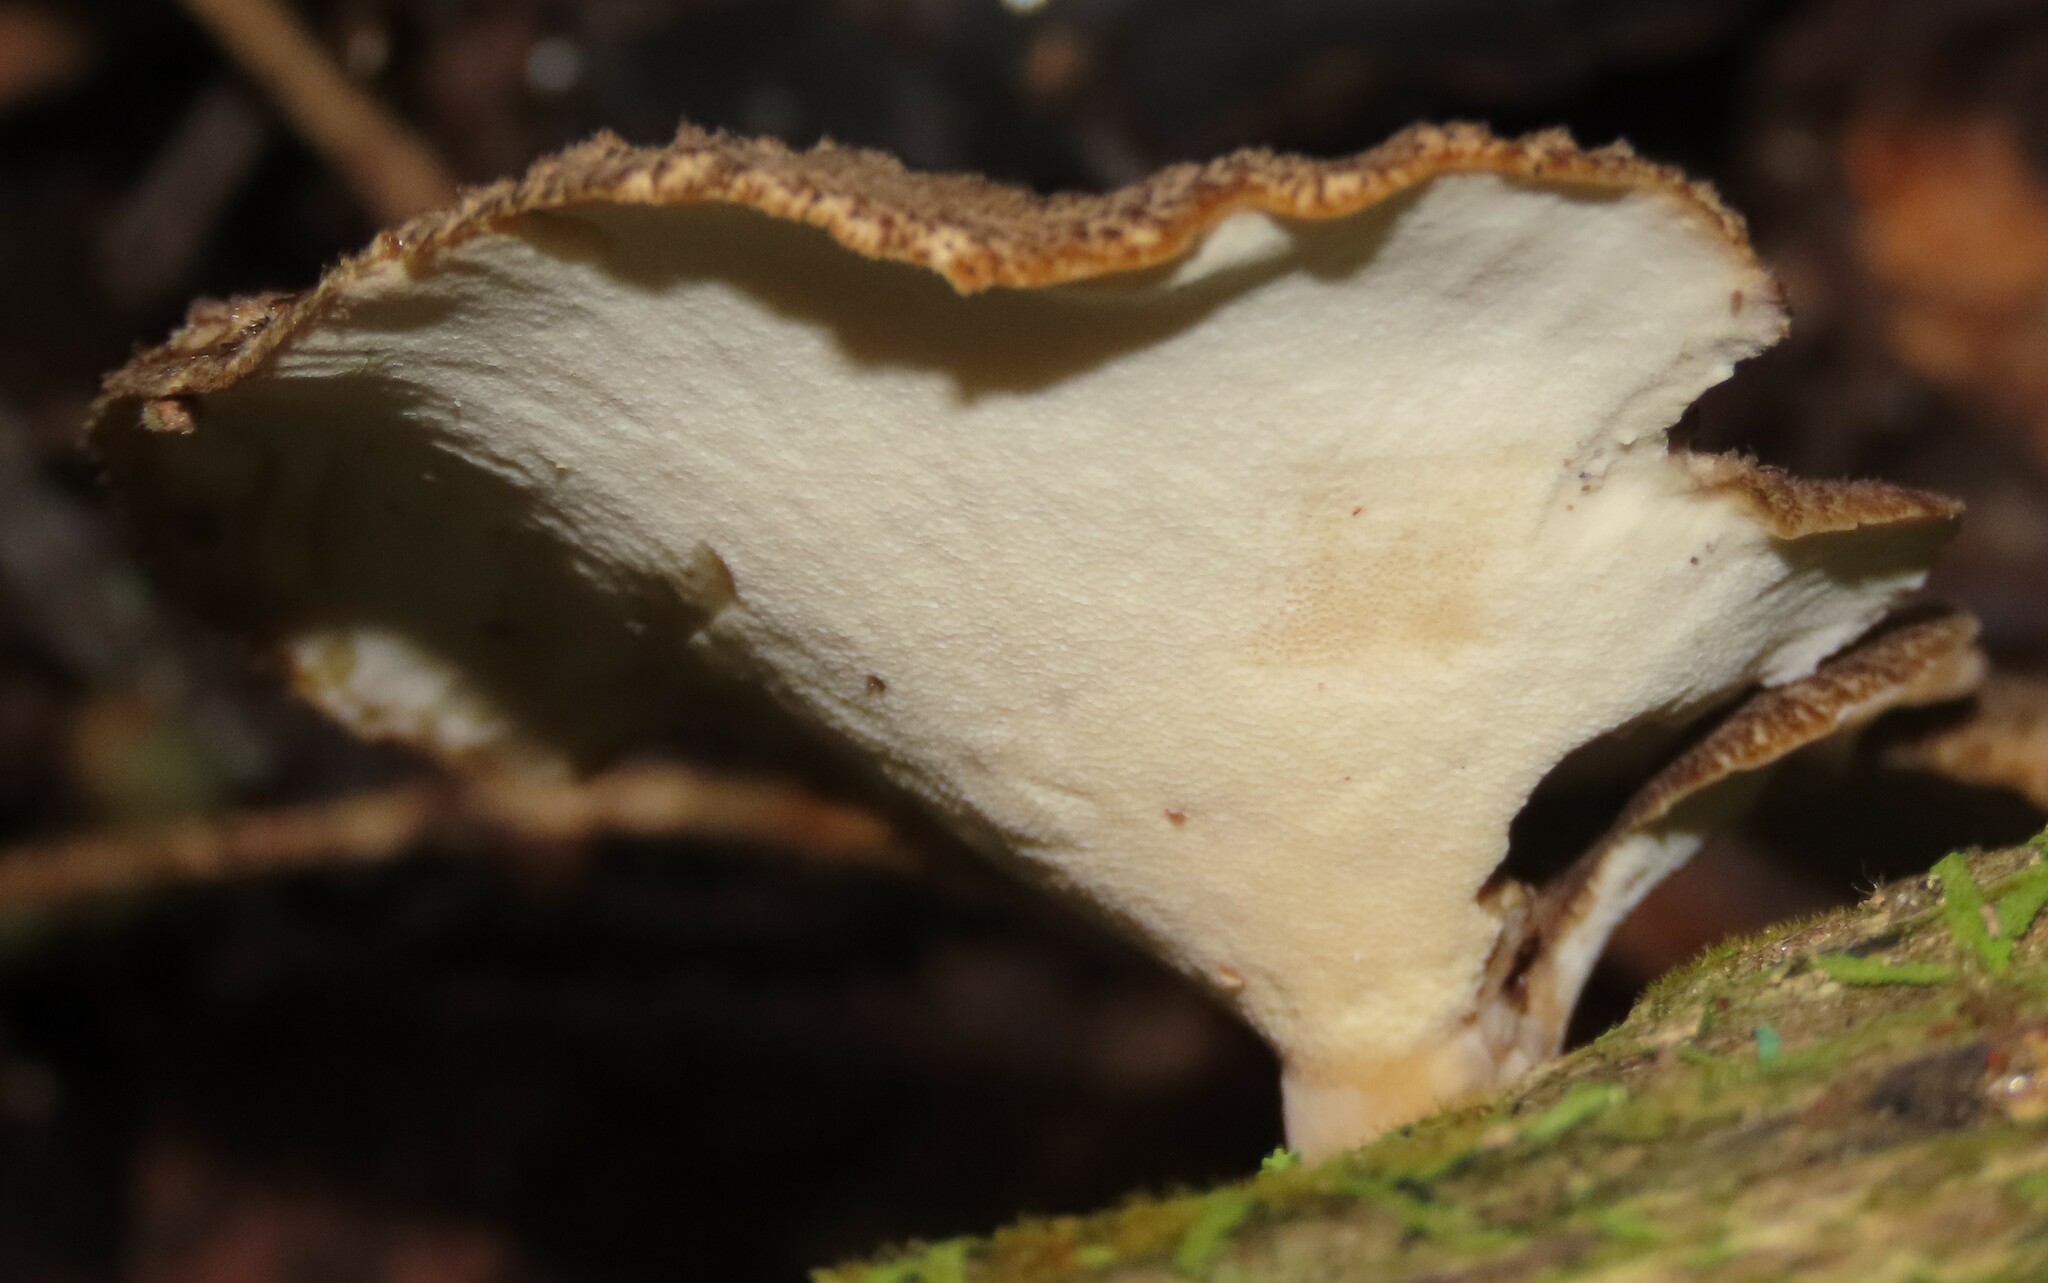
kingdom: Fungi
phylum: Basidiomycota
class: Agaricomycetes
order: Polyporales
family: Polyporaceae
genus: Bresadolia
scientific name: Bresadolia
